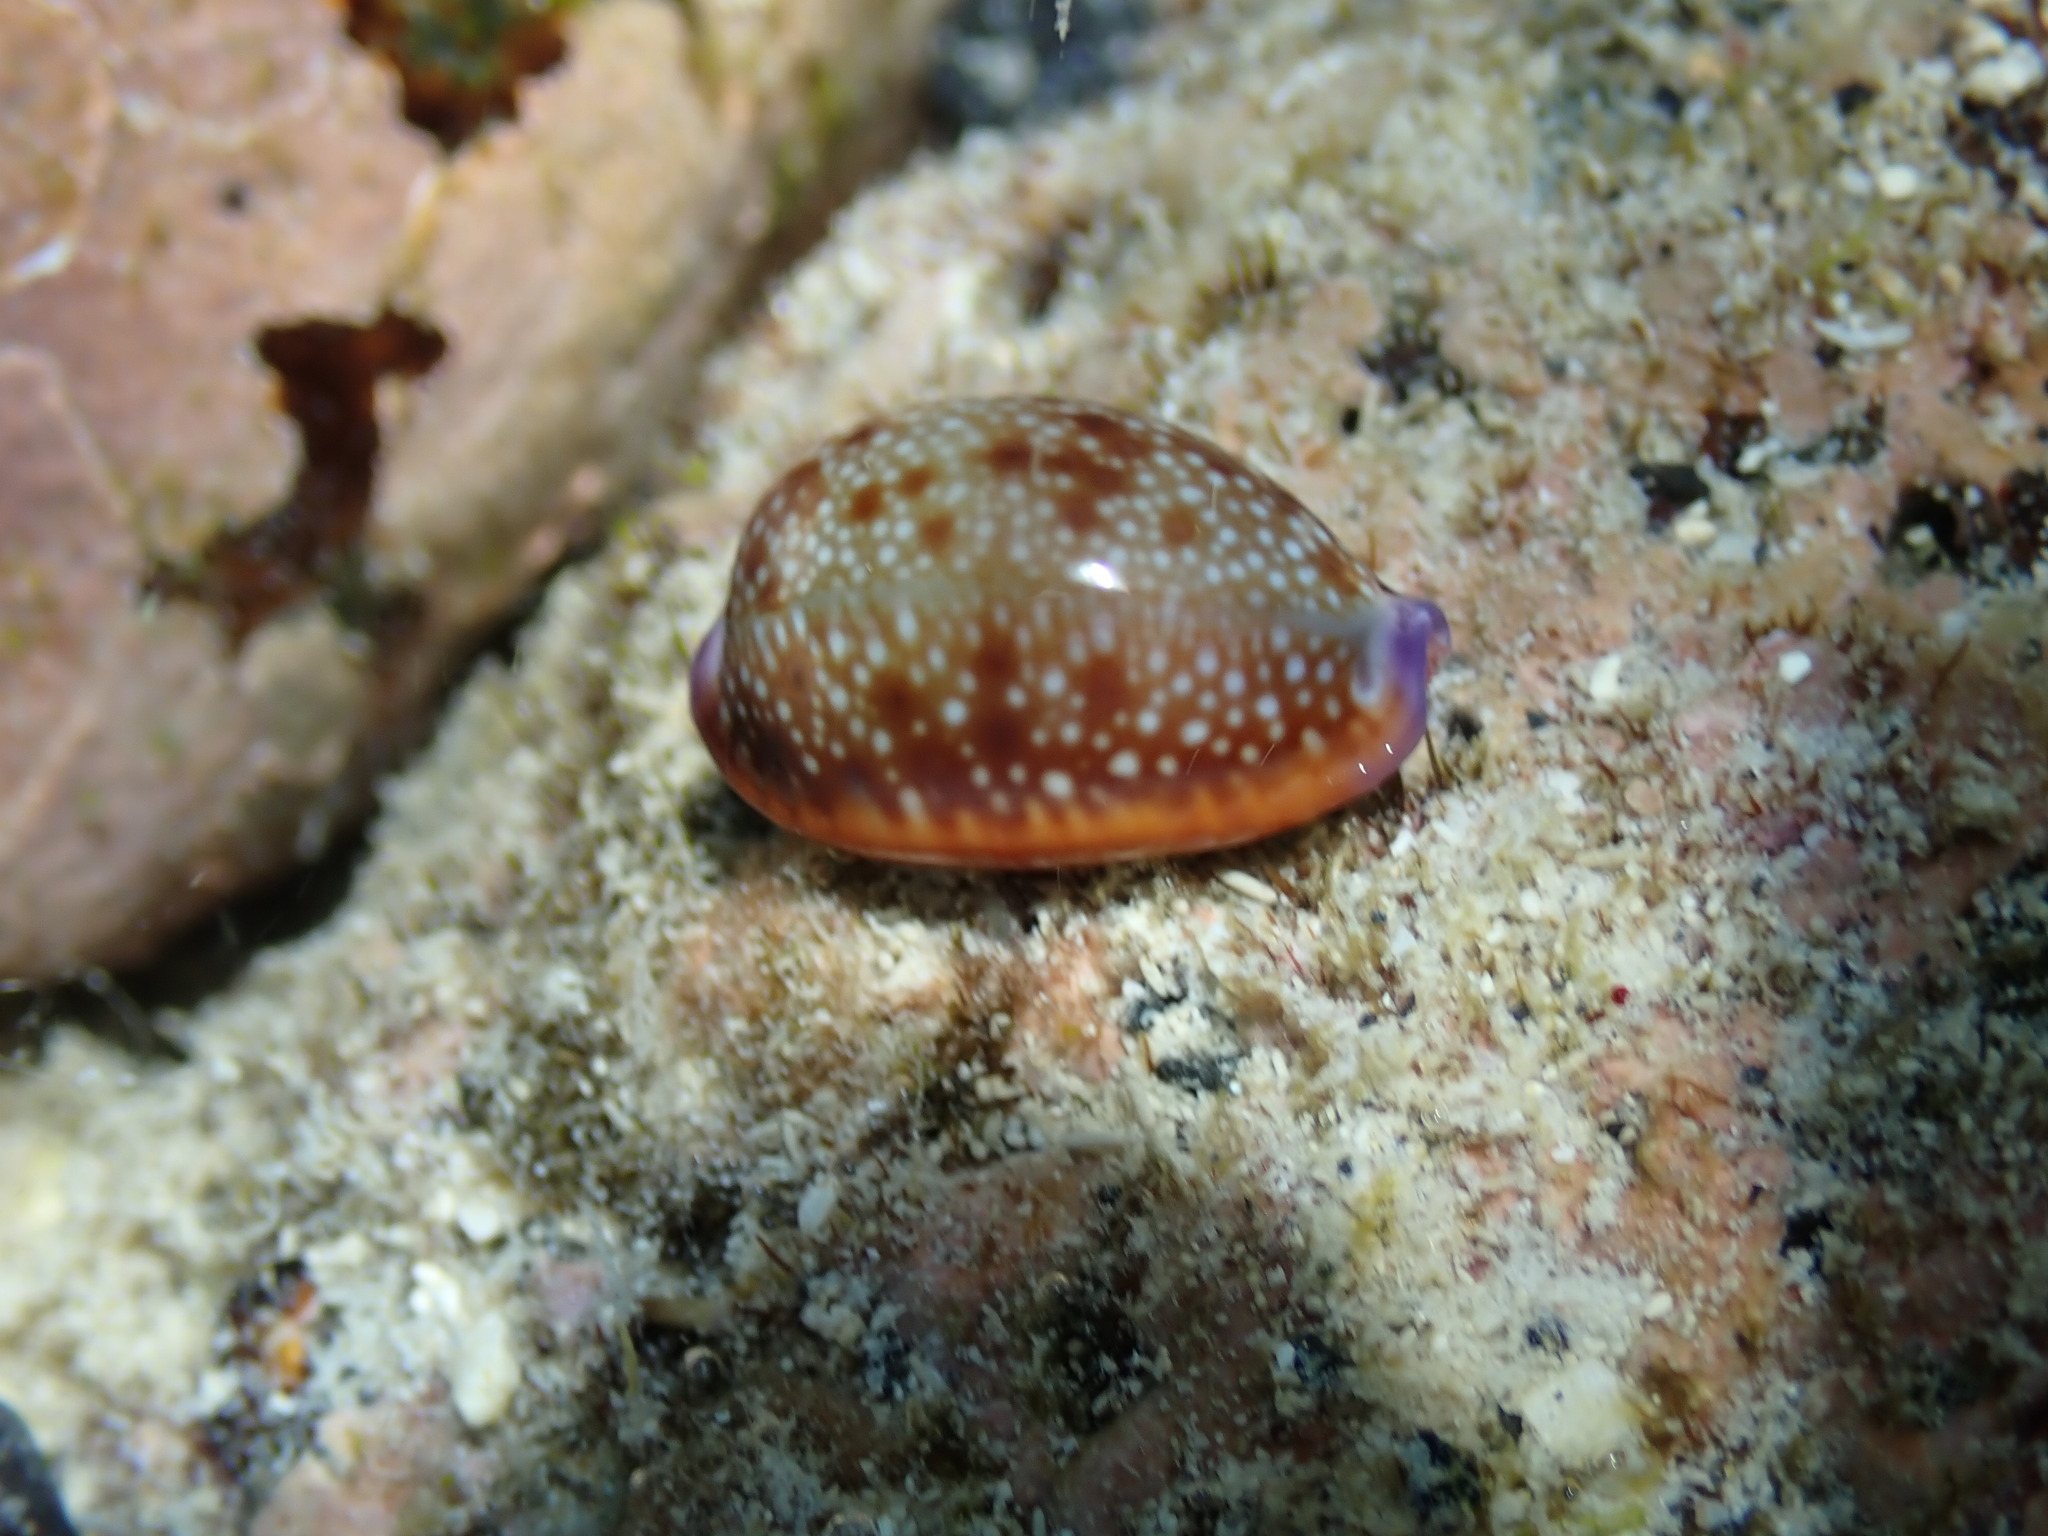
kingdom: Animalia
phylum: Mollusca
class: Gastropoda
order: Littorinimorpha
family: Cypraeidae
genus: Naria
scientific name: Naria helvola
